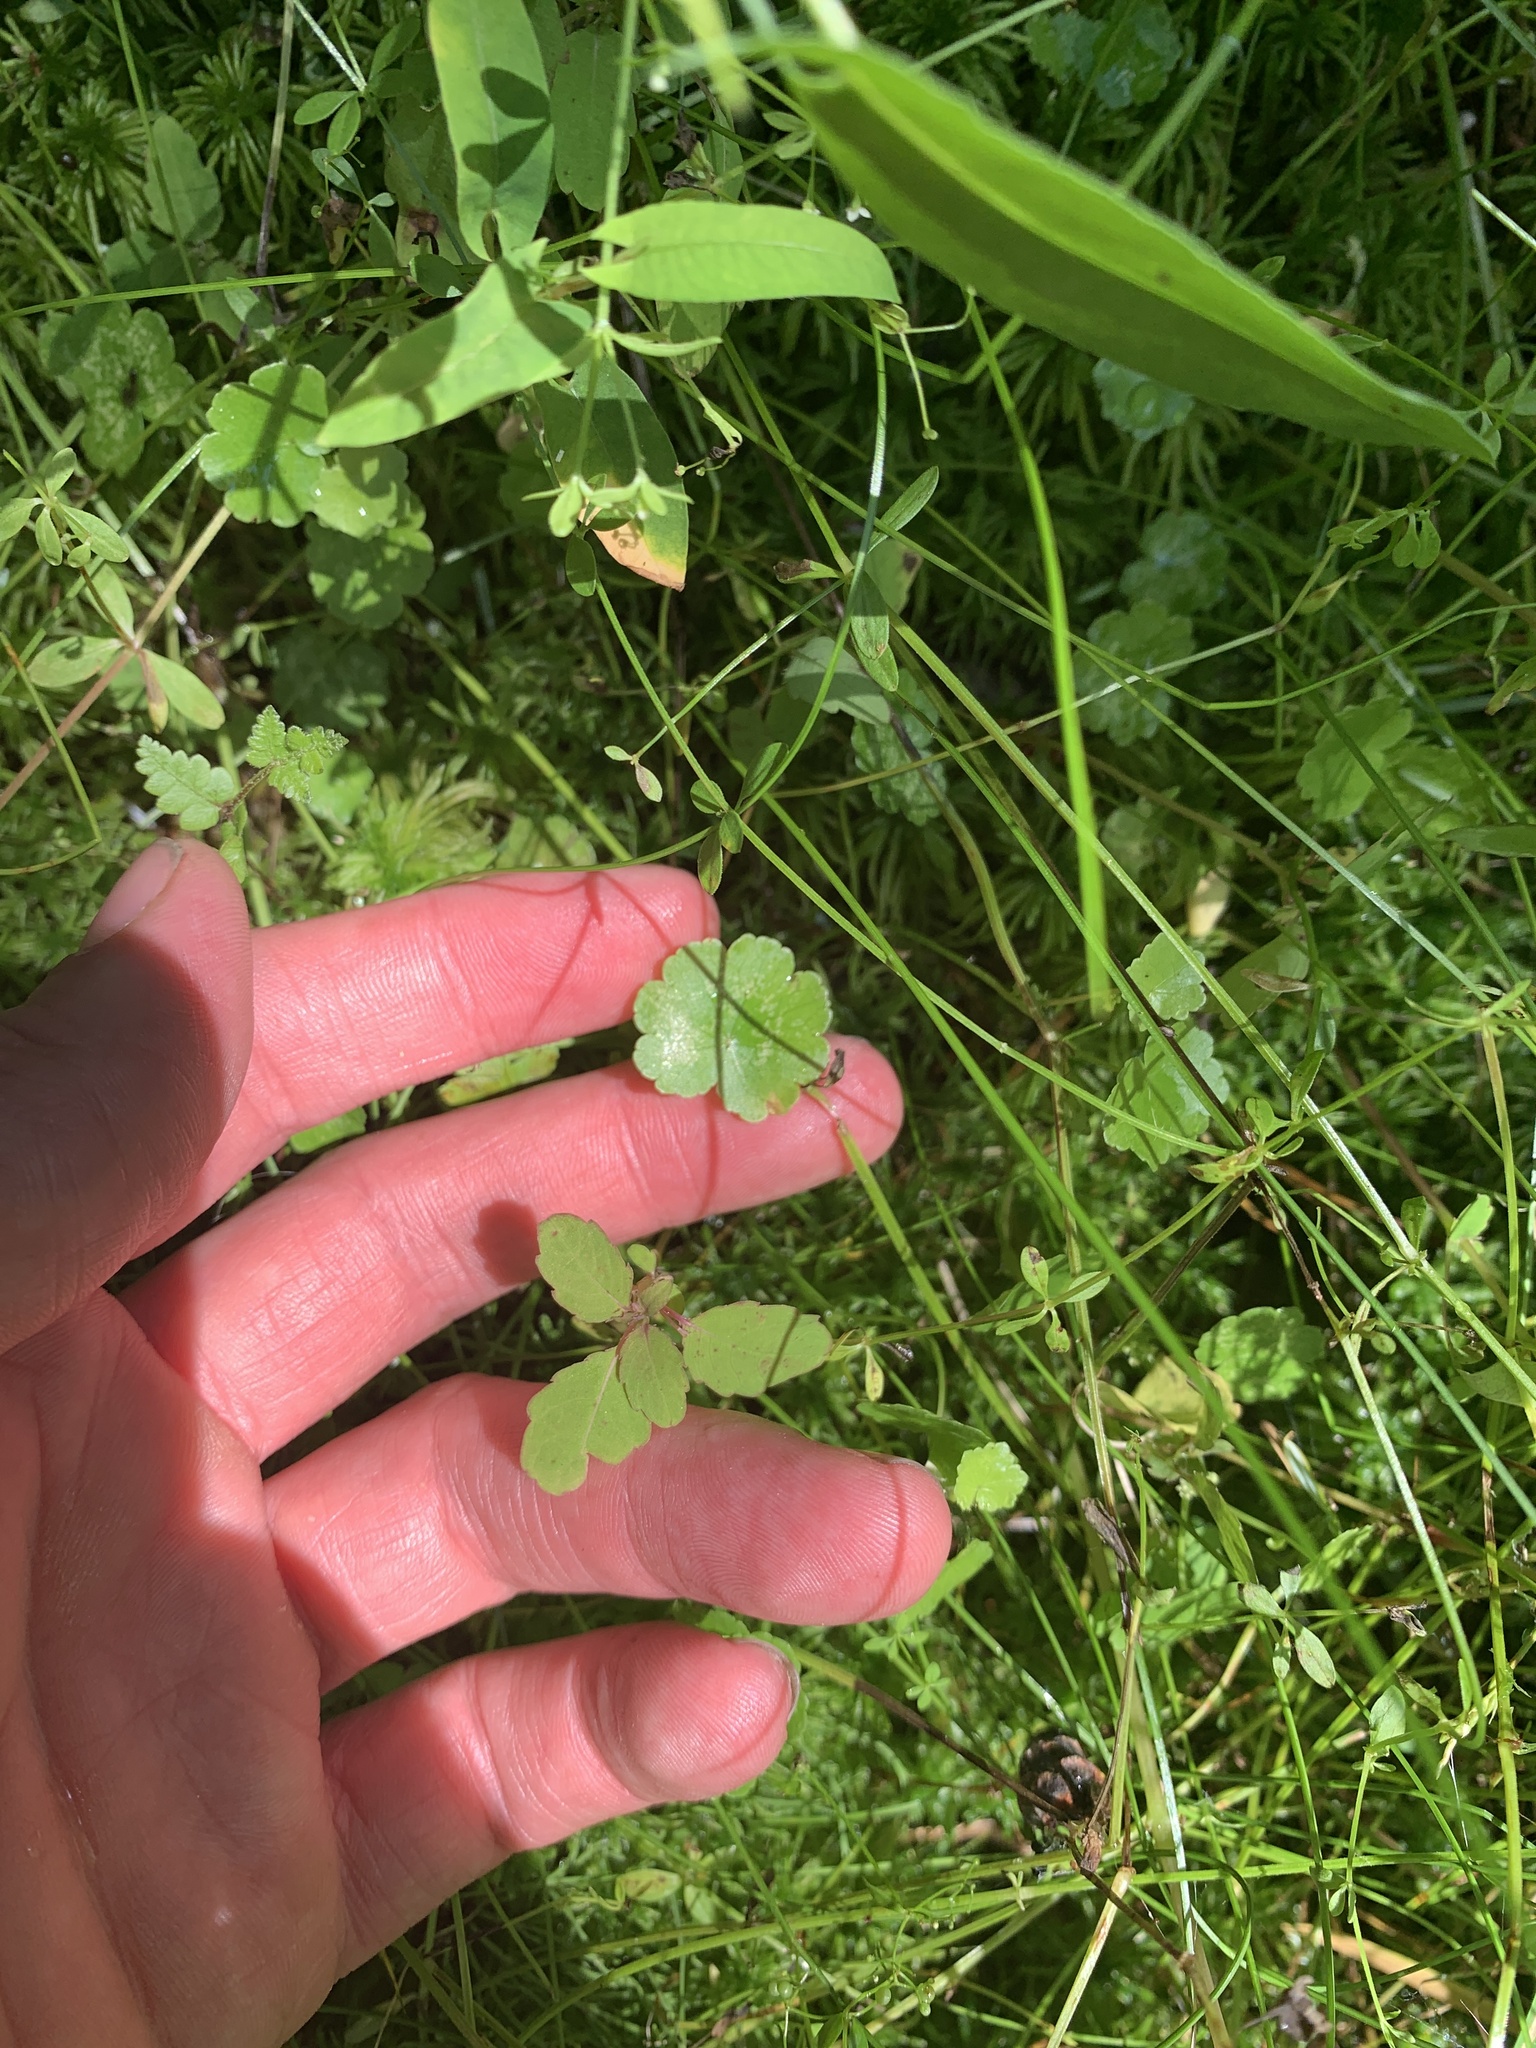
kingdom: Plantae
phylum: Tracheophyta
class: Magnoliopsida
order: Apiales
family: Araliaceae
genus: Hydrocotyle
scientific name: Hydrocotyle americana
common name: American water-pennywort
